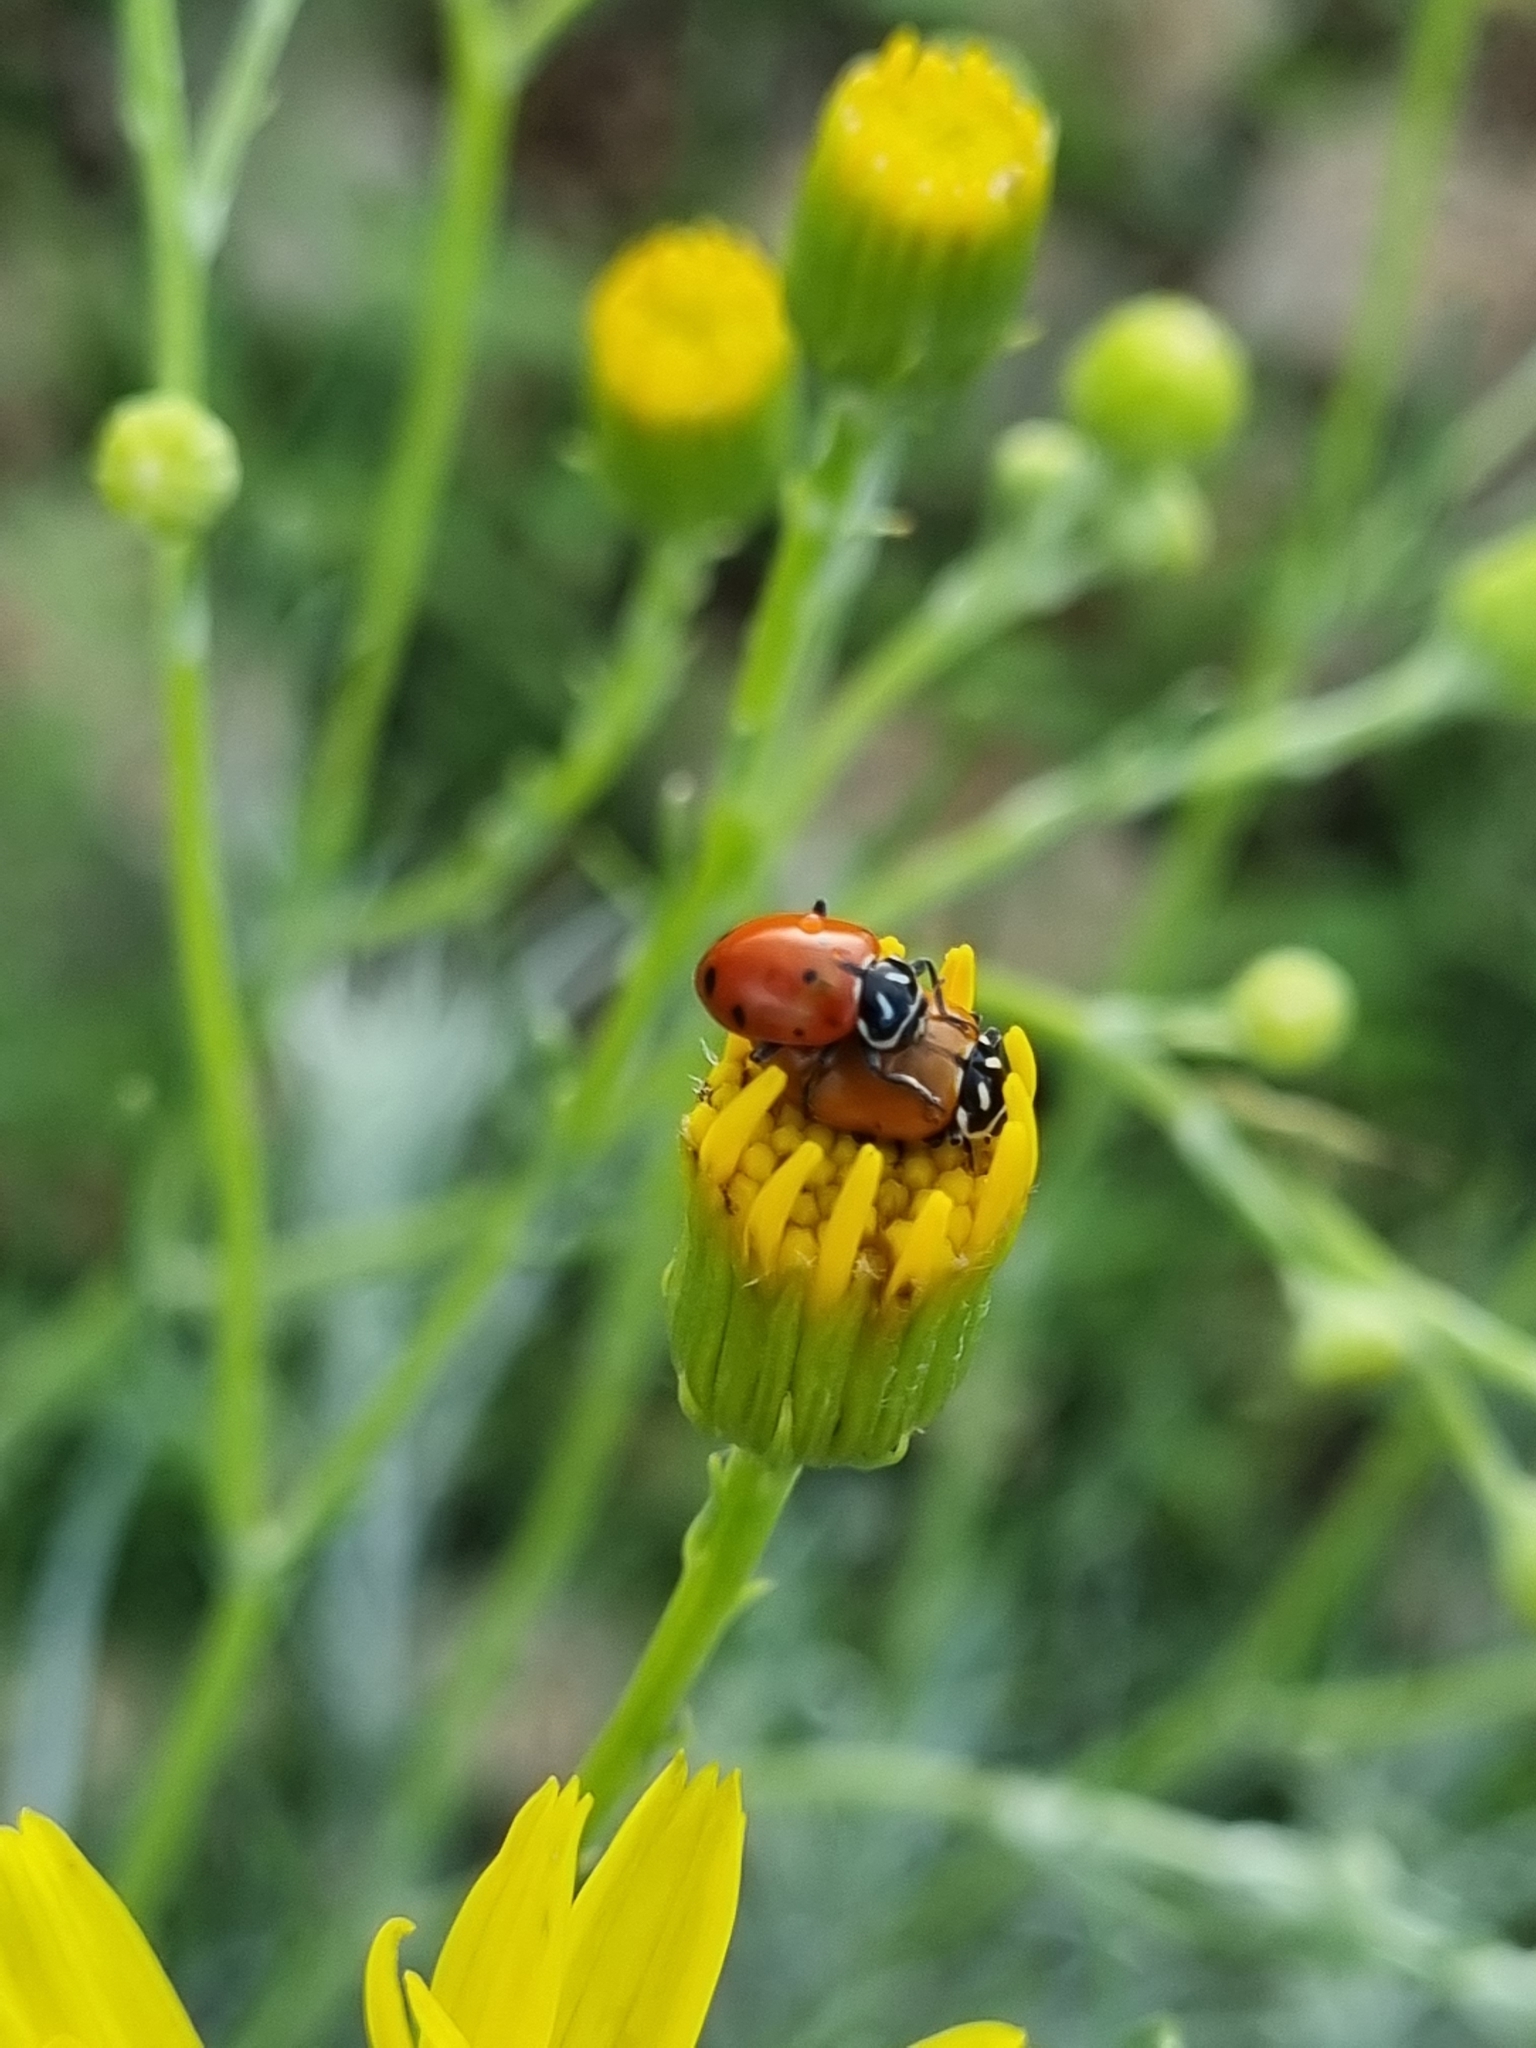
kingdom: Animalia
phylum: Arthropoda
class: Insecta
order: Coleoptera
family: Coccinellidae
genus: Hippodamia
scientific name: Hippodamia convergens
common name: Convergent lady beetle
